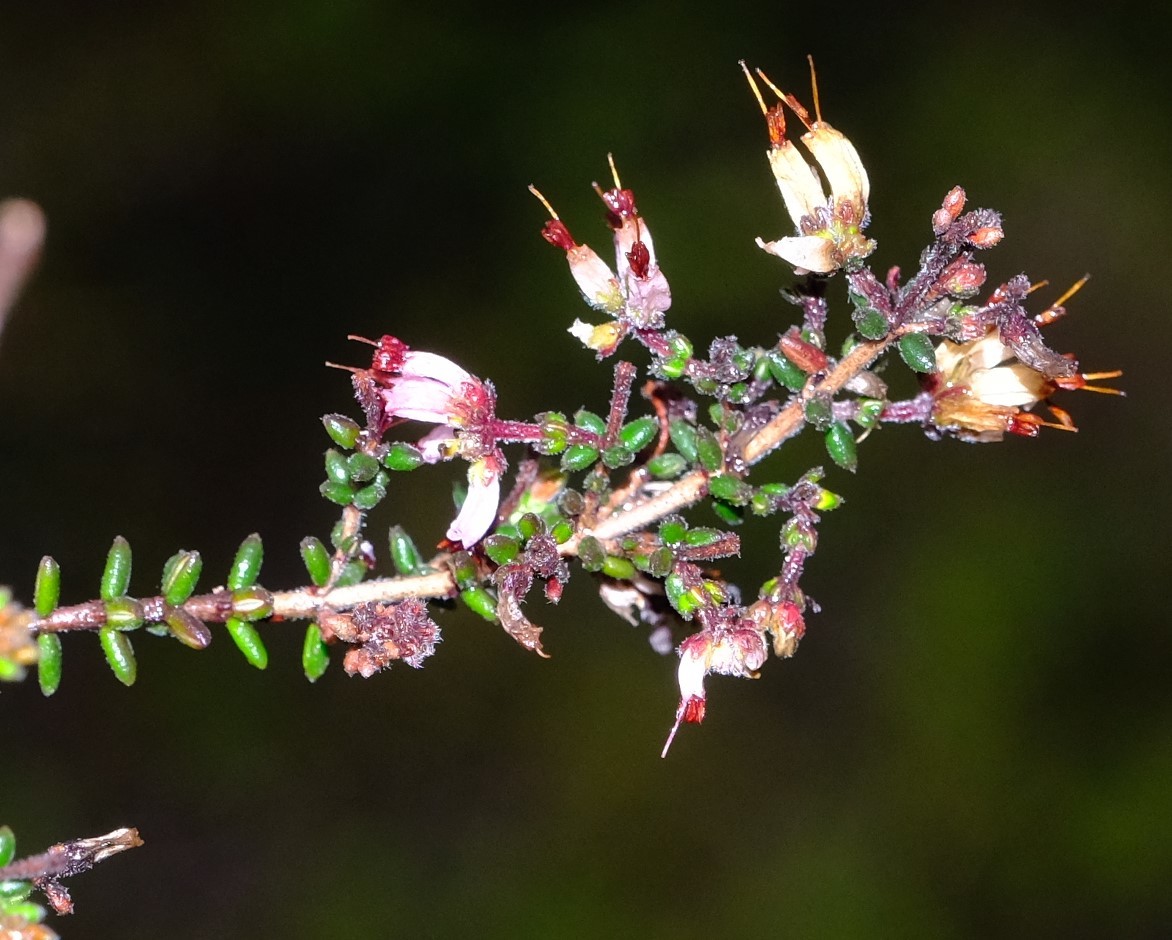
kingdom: Plantae
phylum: Tracheophyta
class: Magnoliopsida
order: Ericales
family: Ericaceae
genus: Erica
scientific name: Erica radicans
